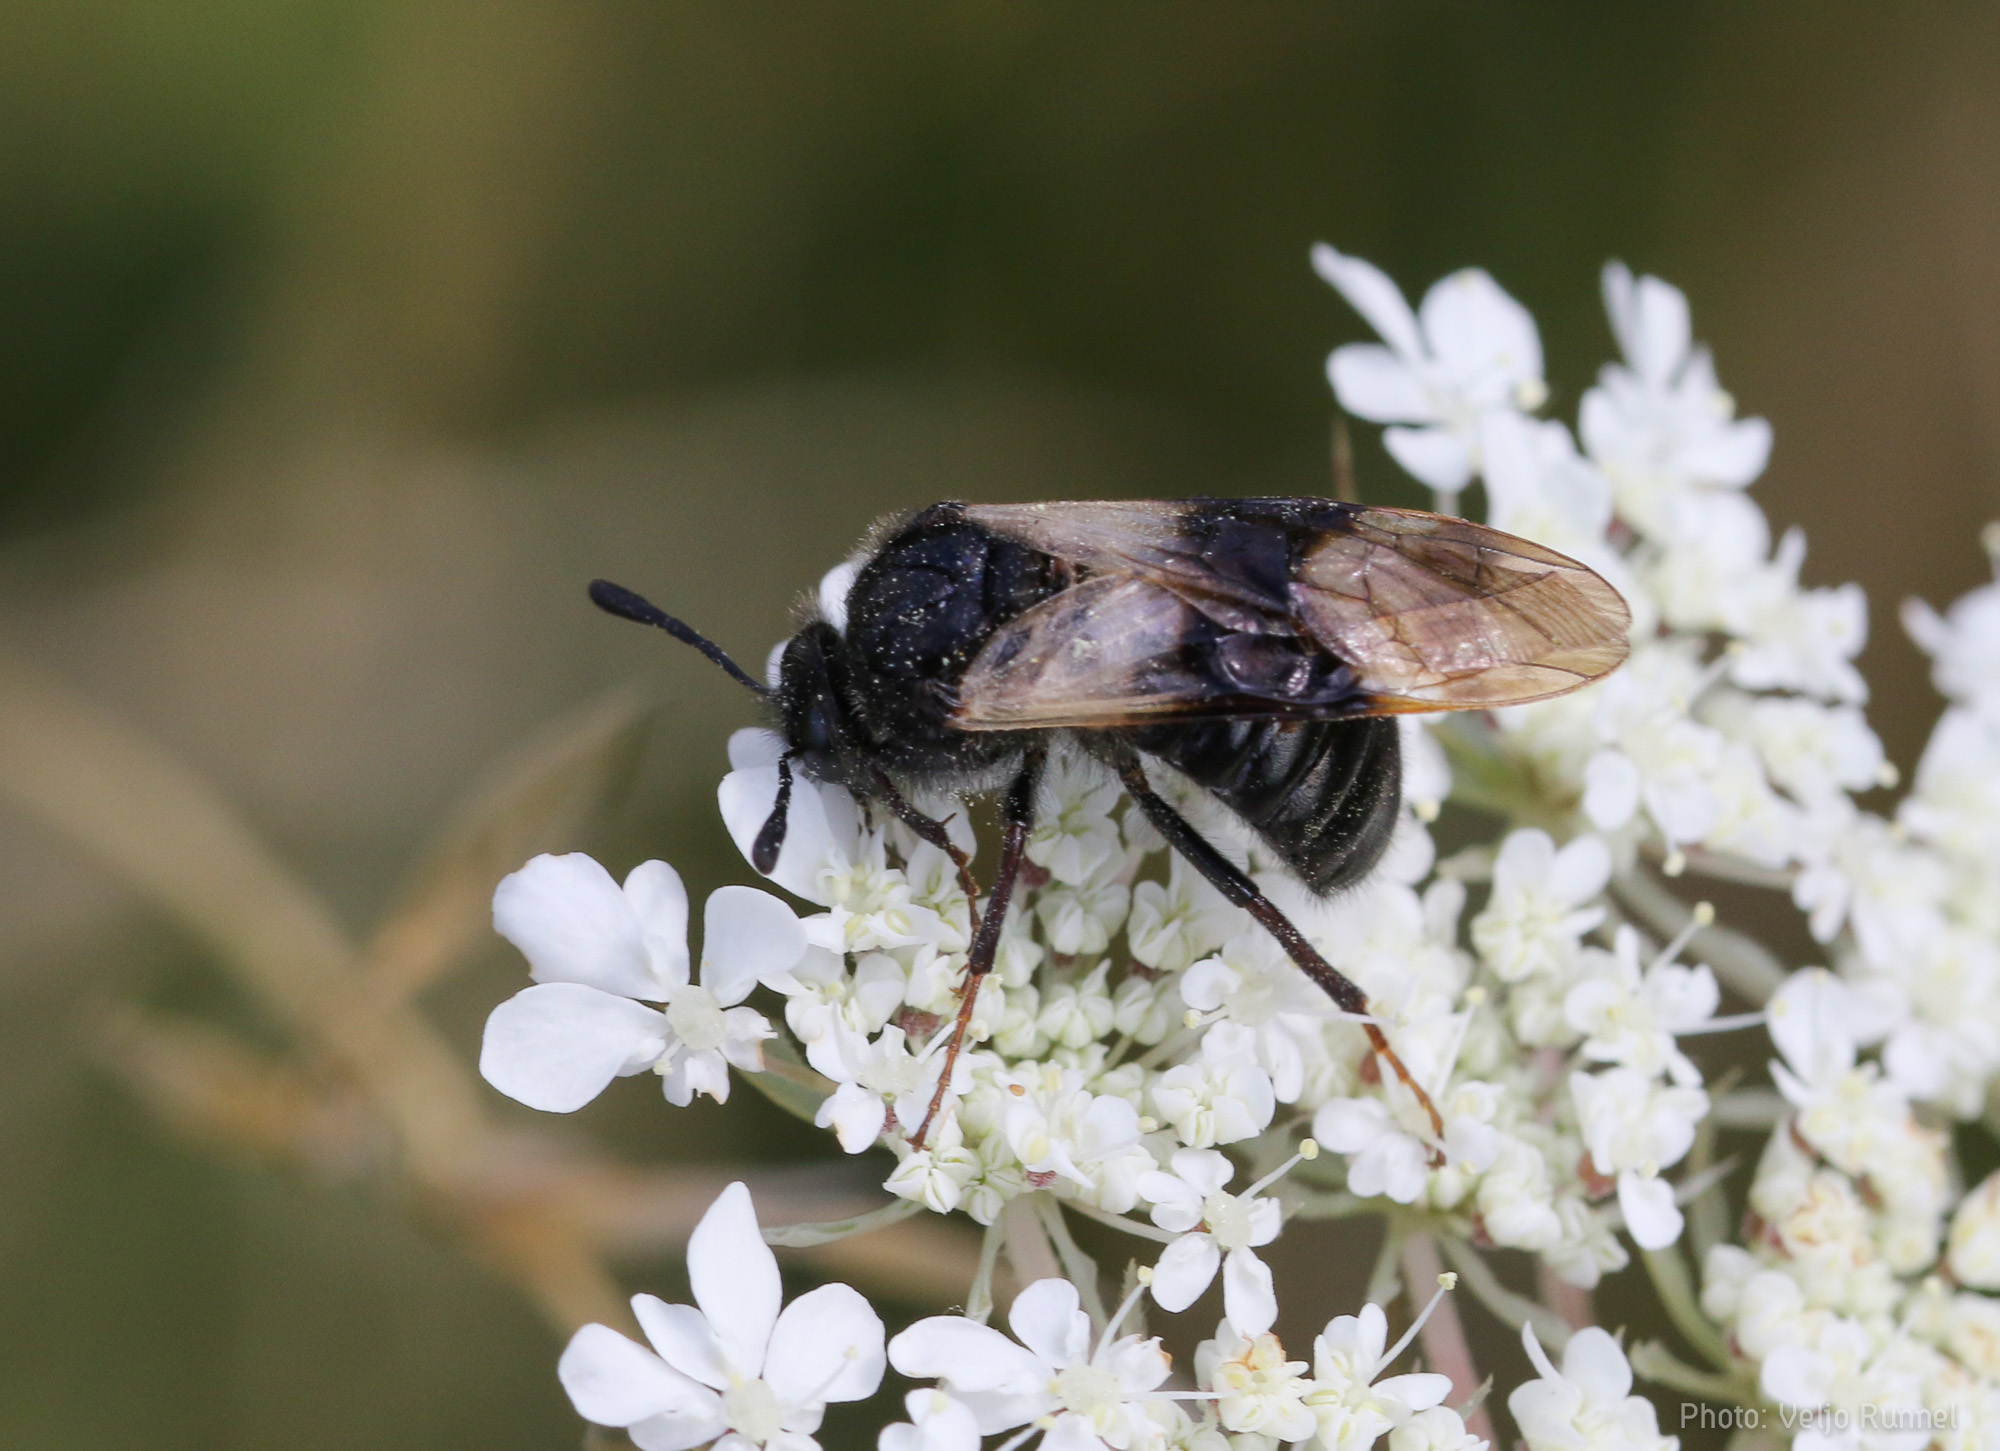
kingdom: Animalia
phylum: Arthropoda
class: Insecta
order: Hymenoptera
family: Cimbicidae
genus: Abia
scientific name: Abia fasciata
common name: Banded honeysuckle sawfly
